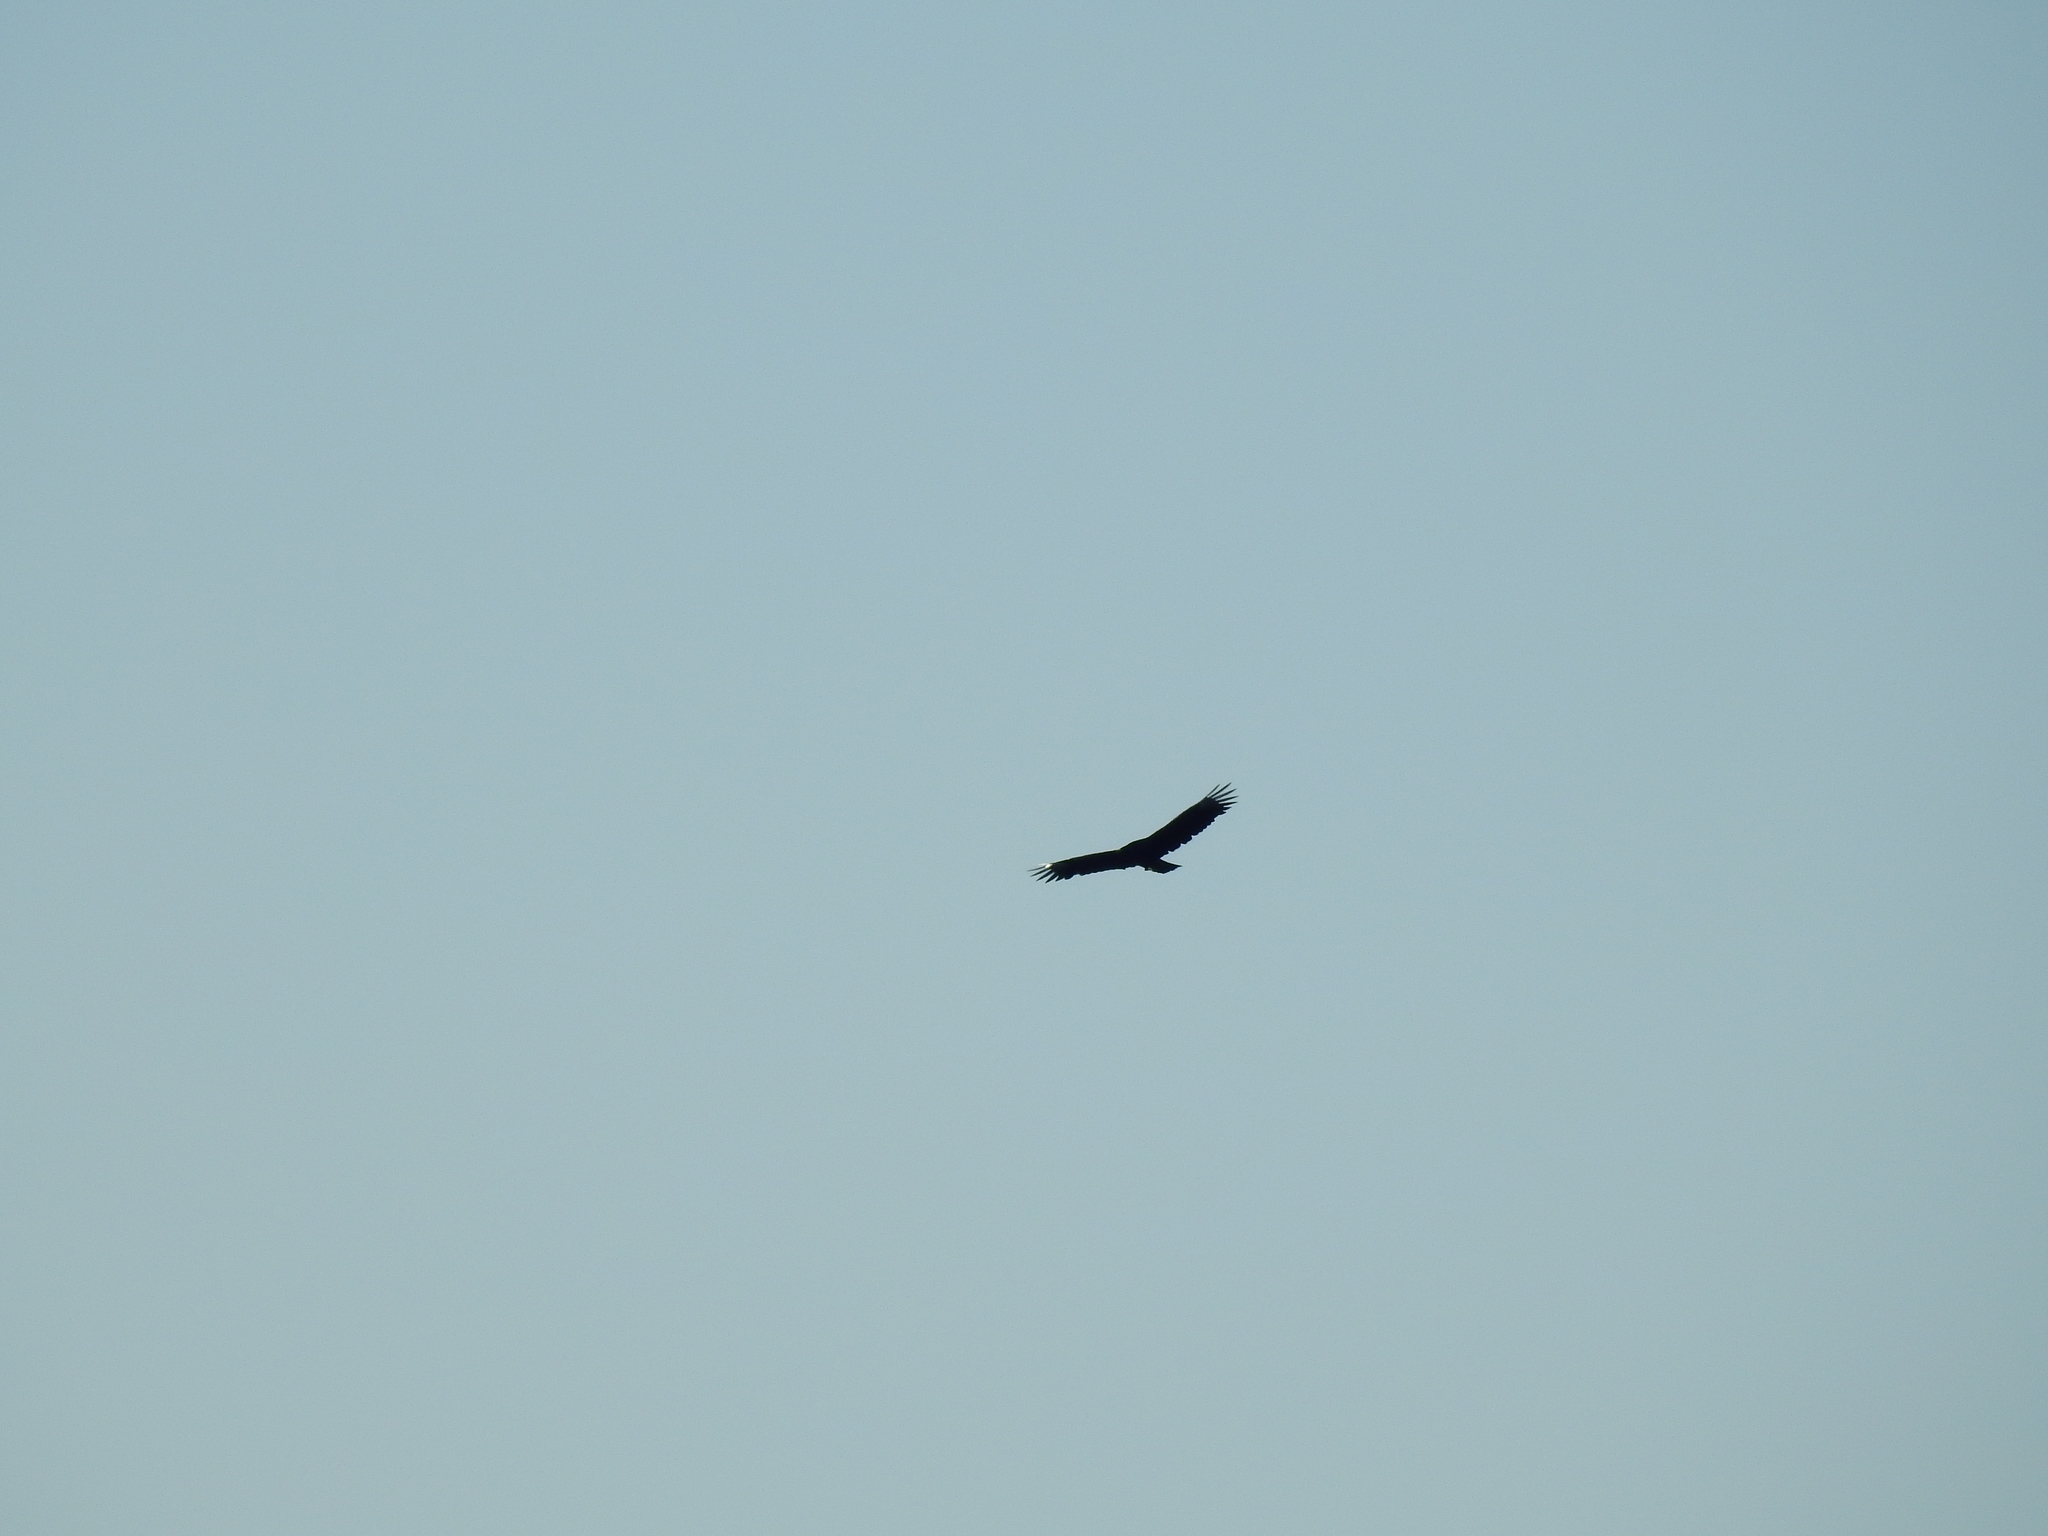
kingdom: Animalia
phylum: Chordata
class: Aves
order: Accipitriformes
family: Cathartidae
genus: Cathartes
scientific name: Cathartes aura
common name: Turkey vulture
